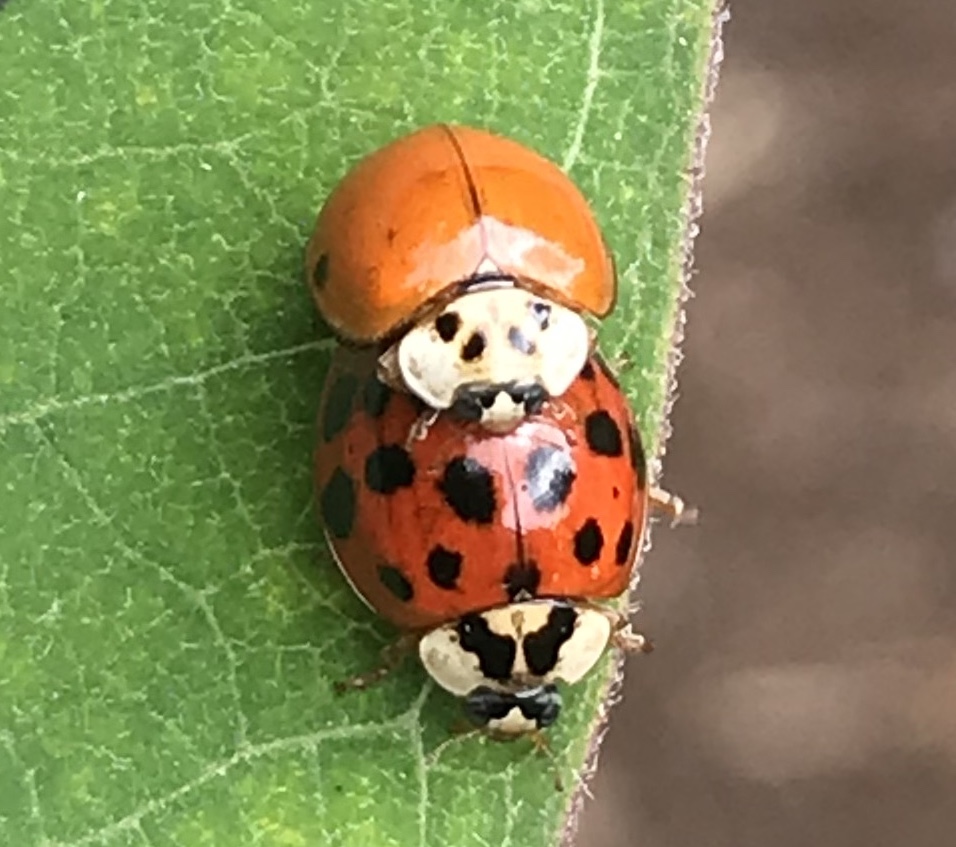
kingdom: Animalia
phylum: Arthropoda
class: Insecta
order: Coleoptera
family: Coccinellidae
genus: Harmonia
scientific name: Harmonia axyridis
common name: Harlequin ladybird
